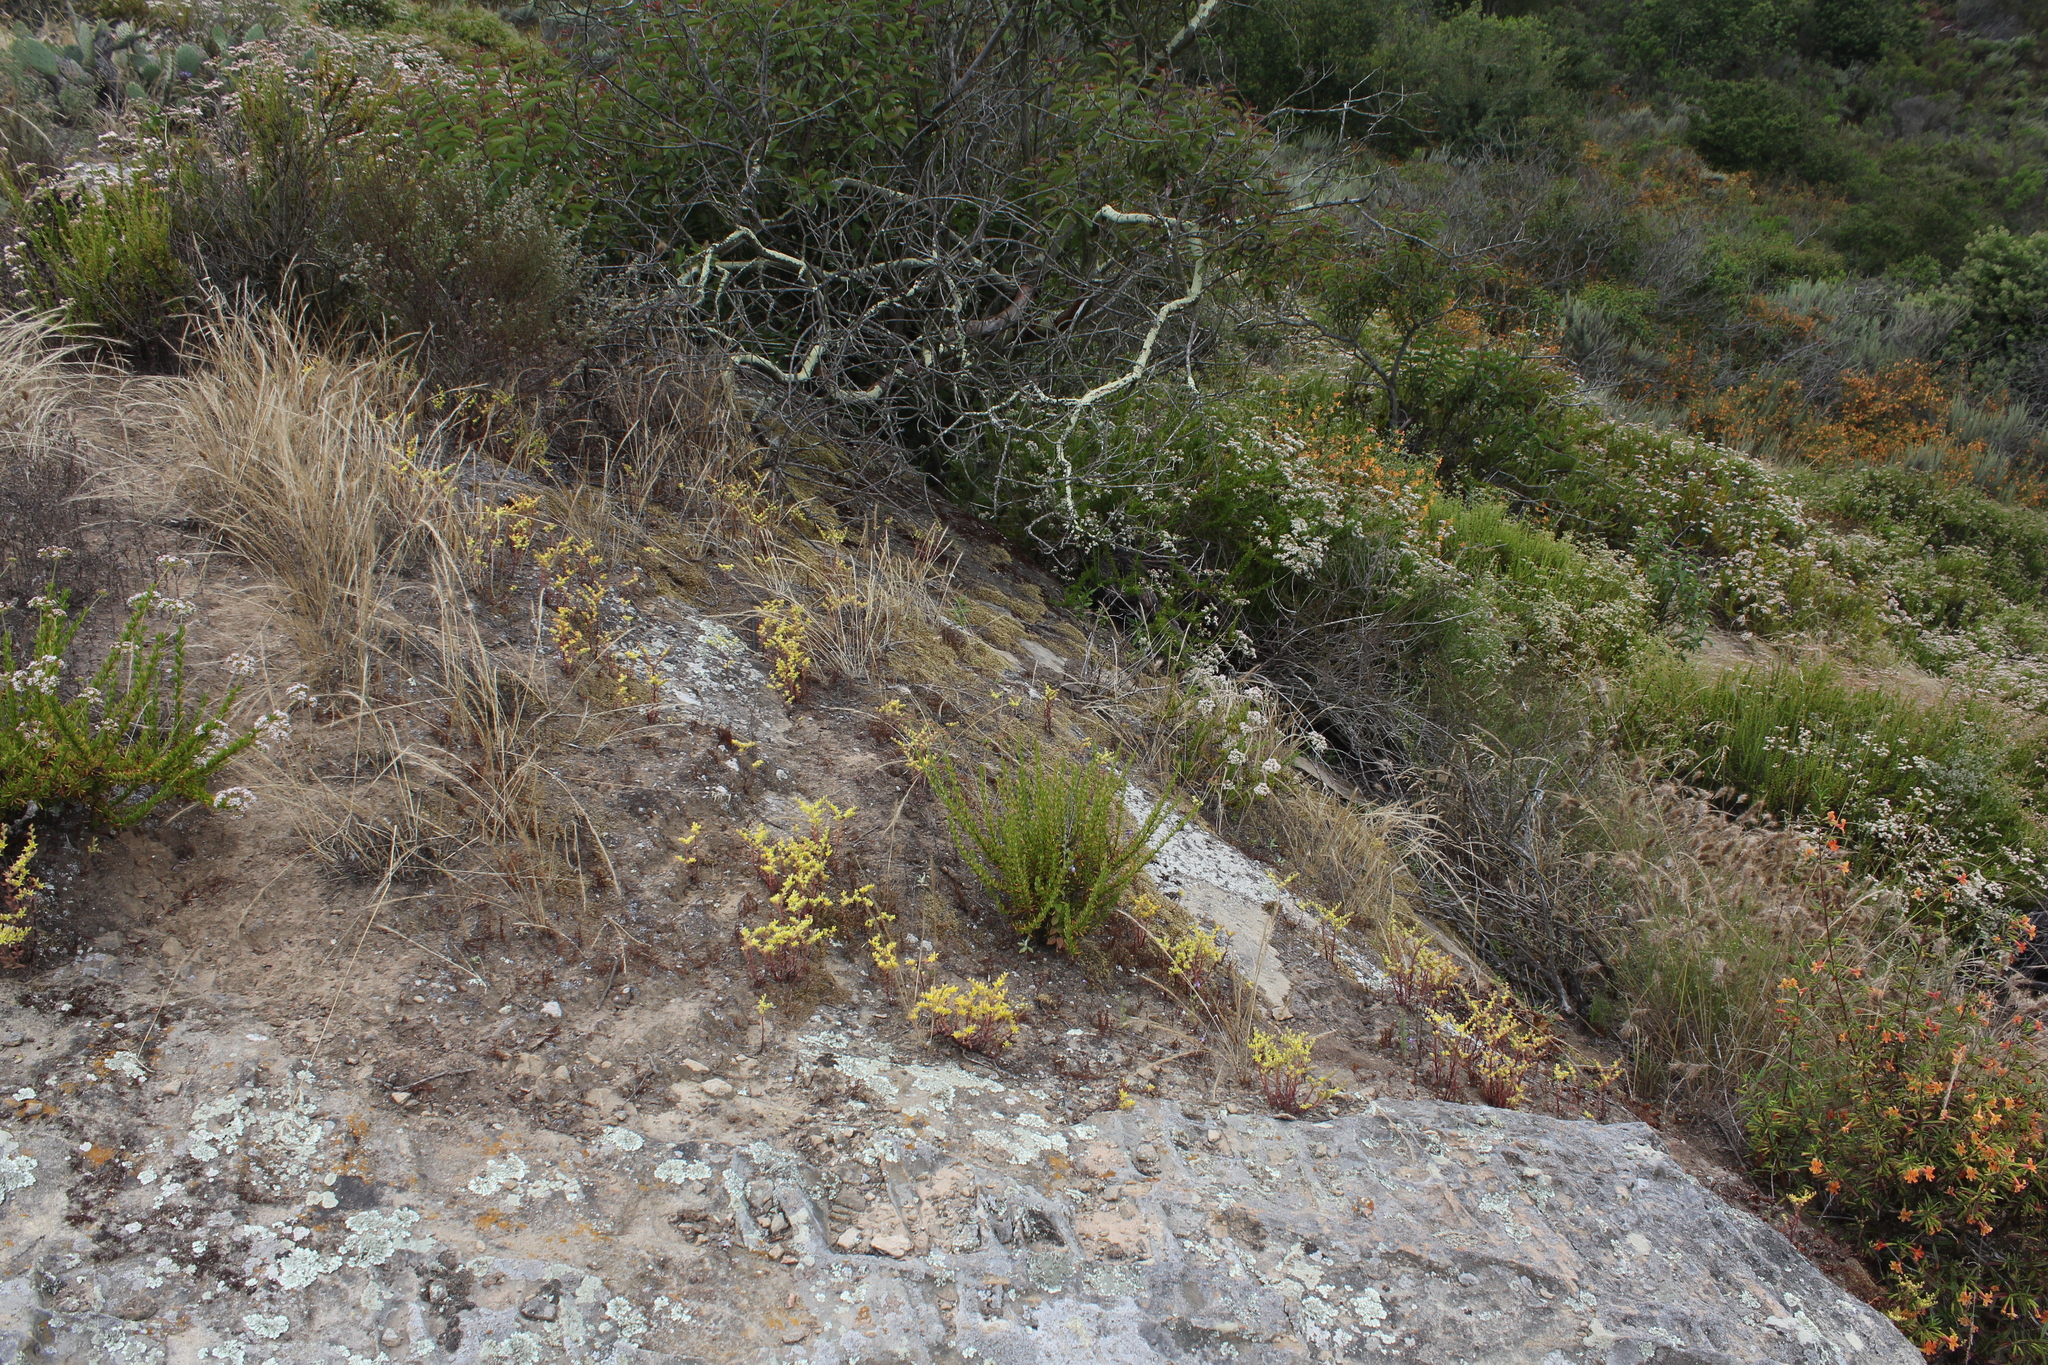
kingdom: Plantae
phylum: Tracheophyta
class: Magnoliopsida
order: Saxifragales
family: Crassulaceae
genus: Dudleya
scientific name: Dudleya multicaulis
